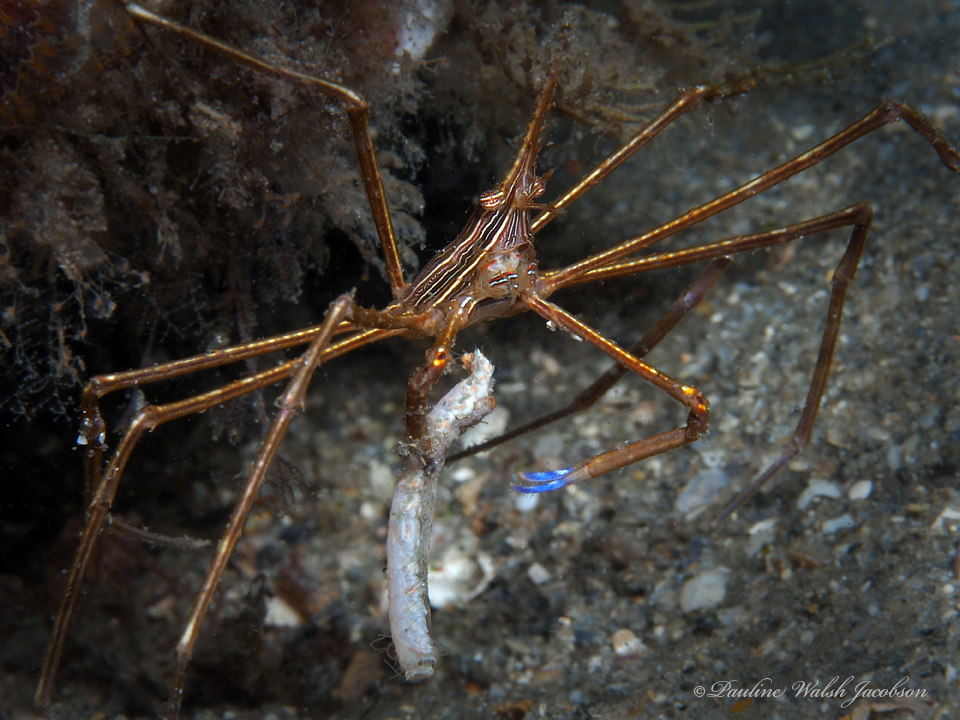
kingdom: Animalia
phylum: Arthropoda
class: Malacostraca
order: Decapoda
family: Inachoididae
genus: Stenorhynchus
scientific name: Stenorhynchus seticornis
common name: Arrow crab
